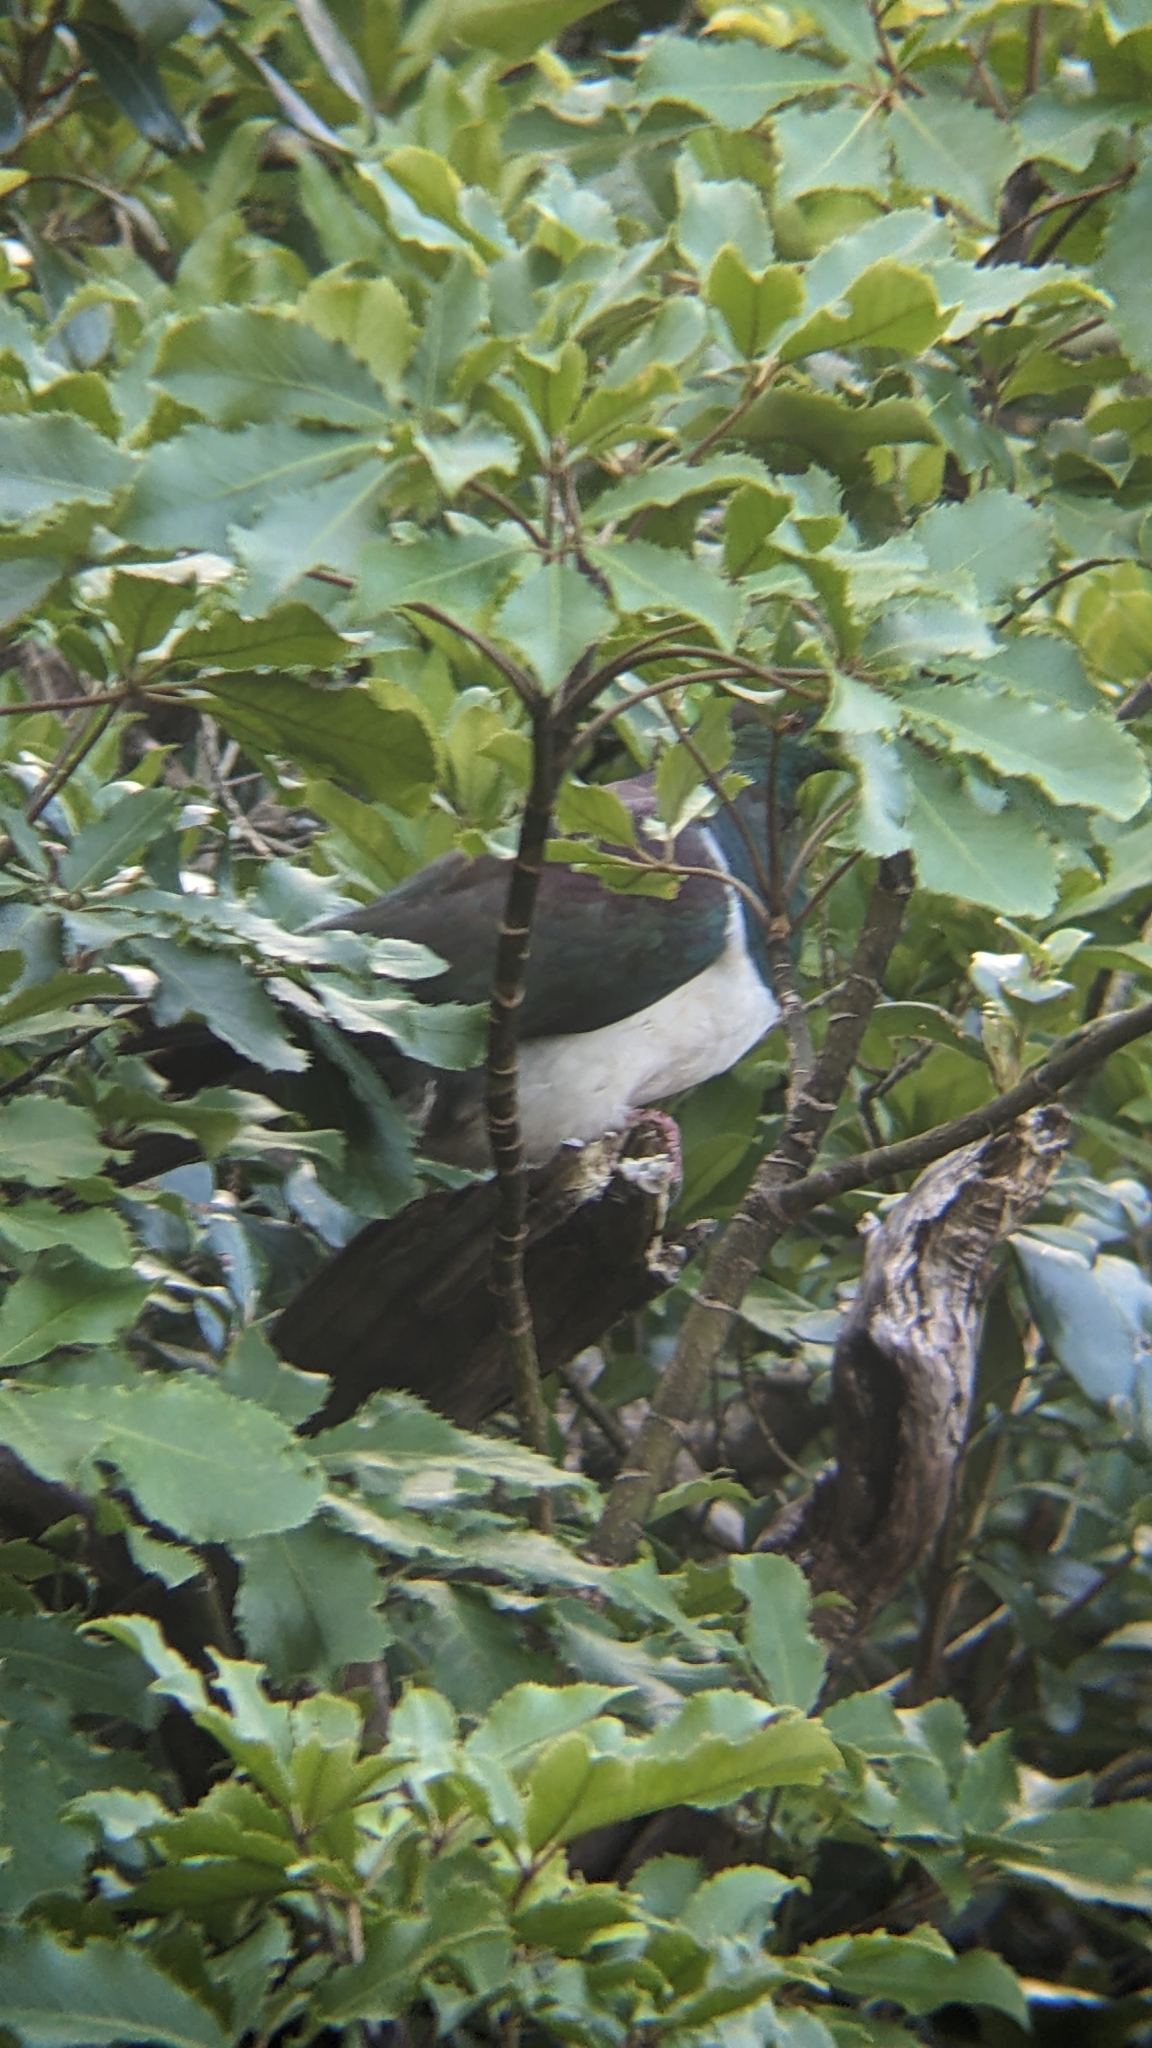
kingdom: Animalia
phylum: Chordata
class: Aves
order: Columbiformes
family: Columbidae
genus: Hemiphaga
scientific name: Hemiphaga novaeseelandiae
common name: New zealand pigeon
